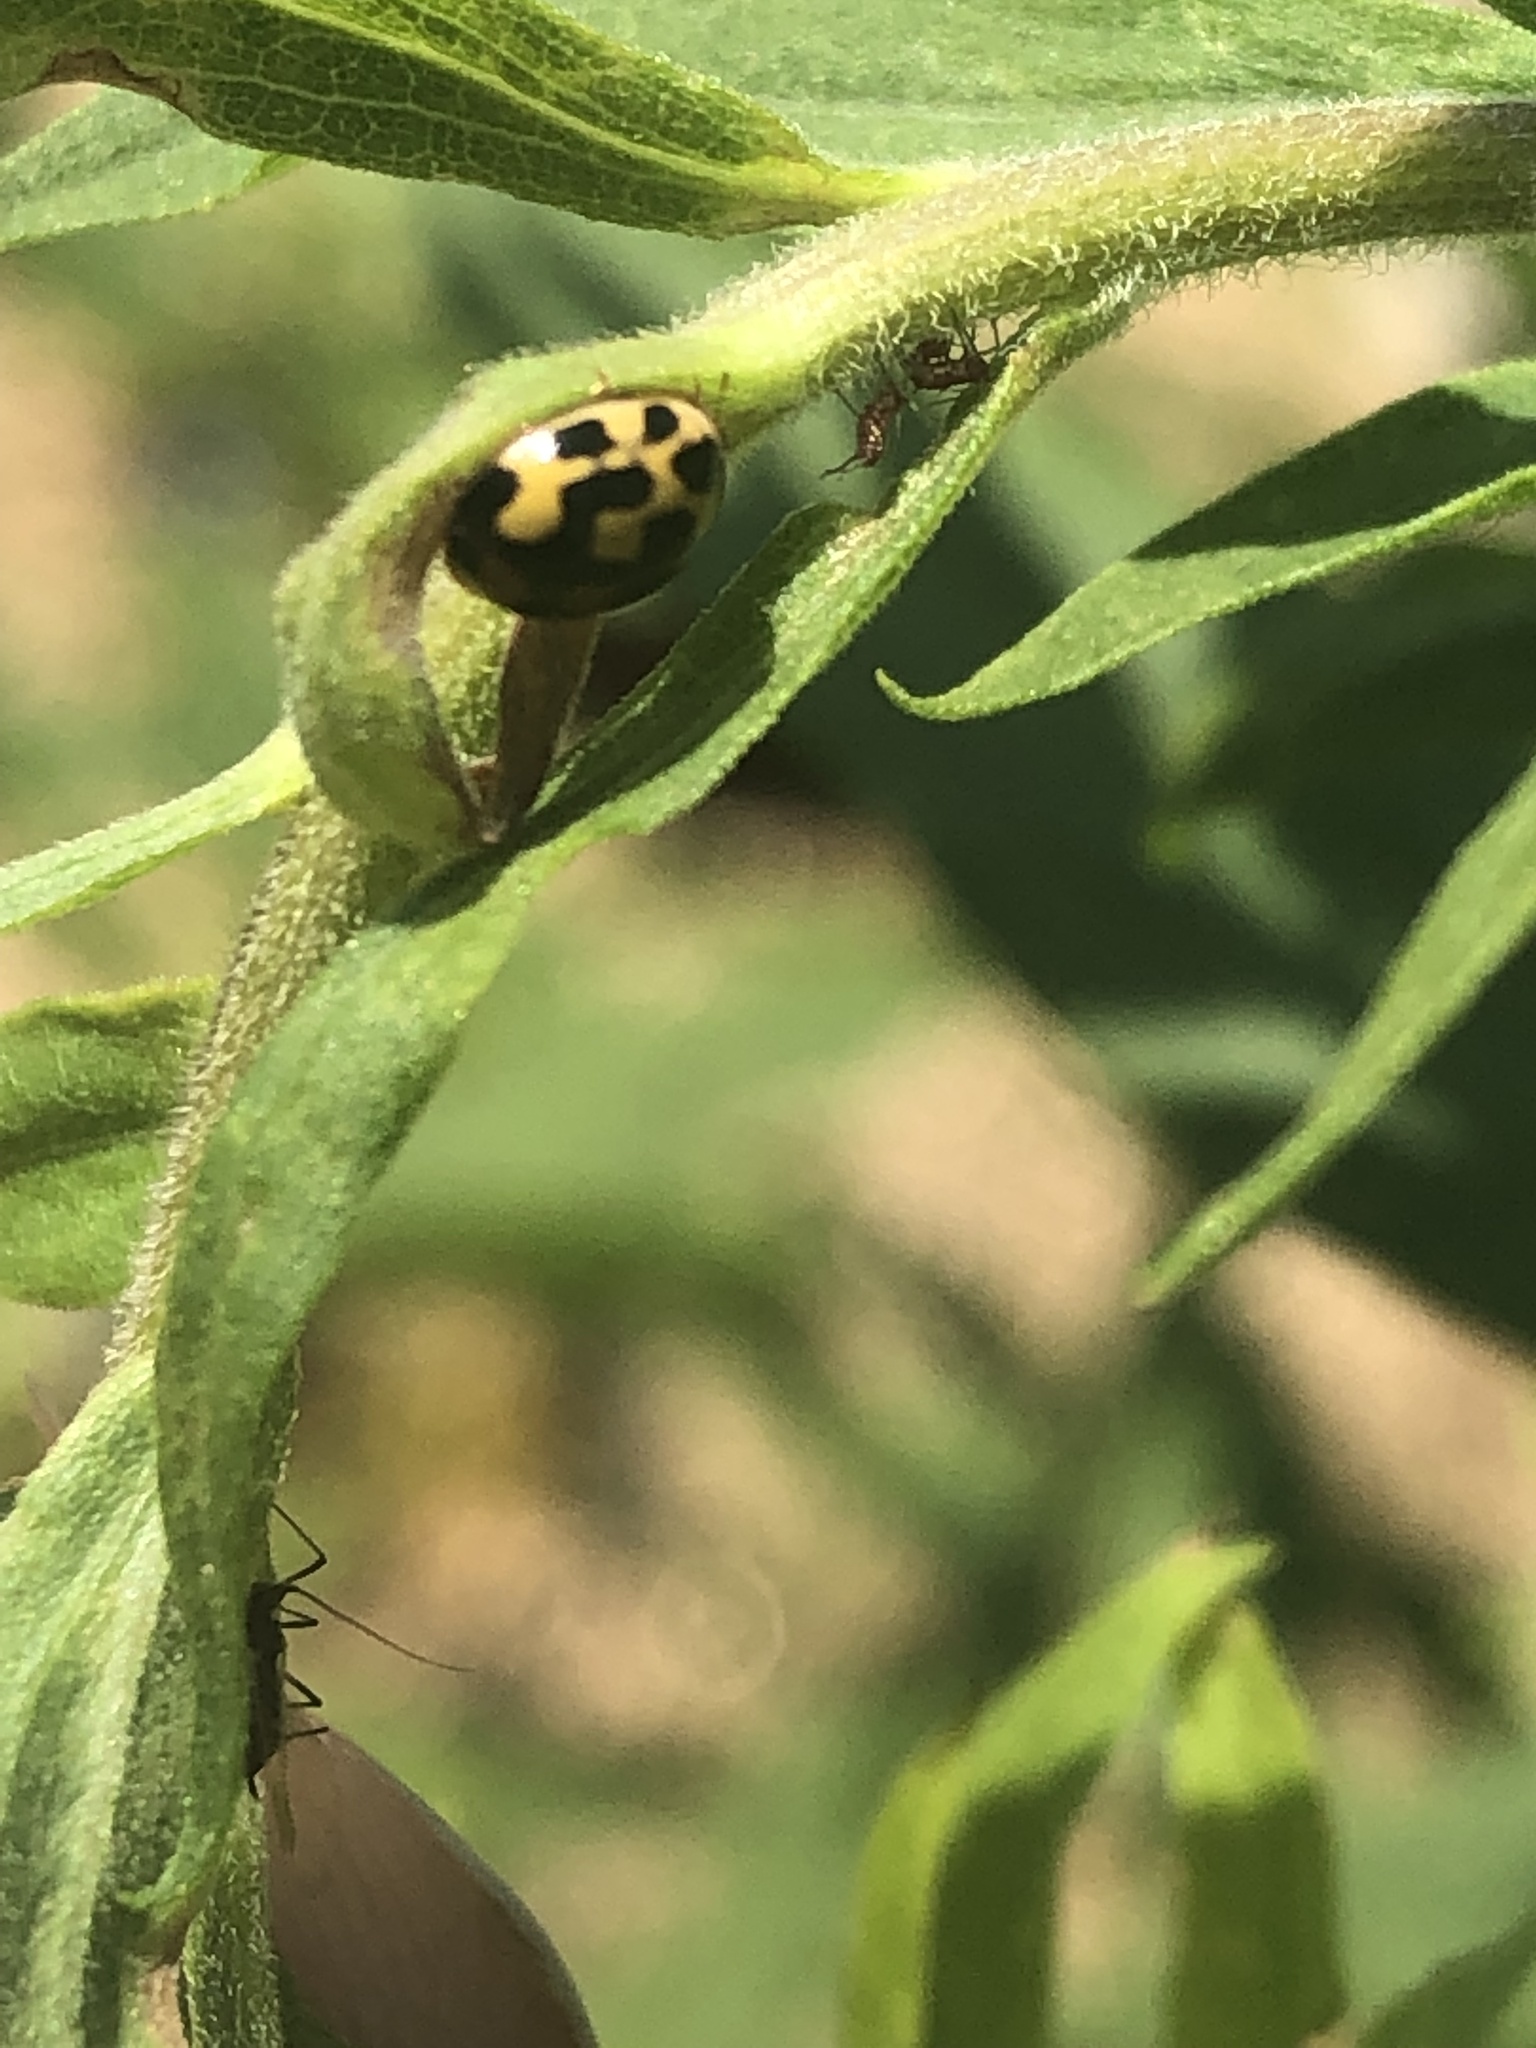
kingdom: Animalia
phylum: Arthropoda
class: Insecta
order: Coleoptera
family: Coccinellidae
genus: Propylaea
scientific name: Propylaea quatuordecimpunctata
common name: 14-spotted ladybird beetle
